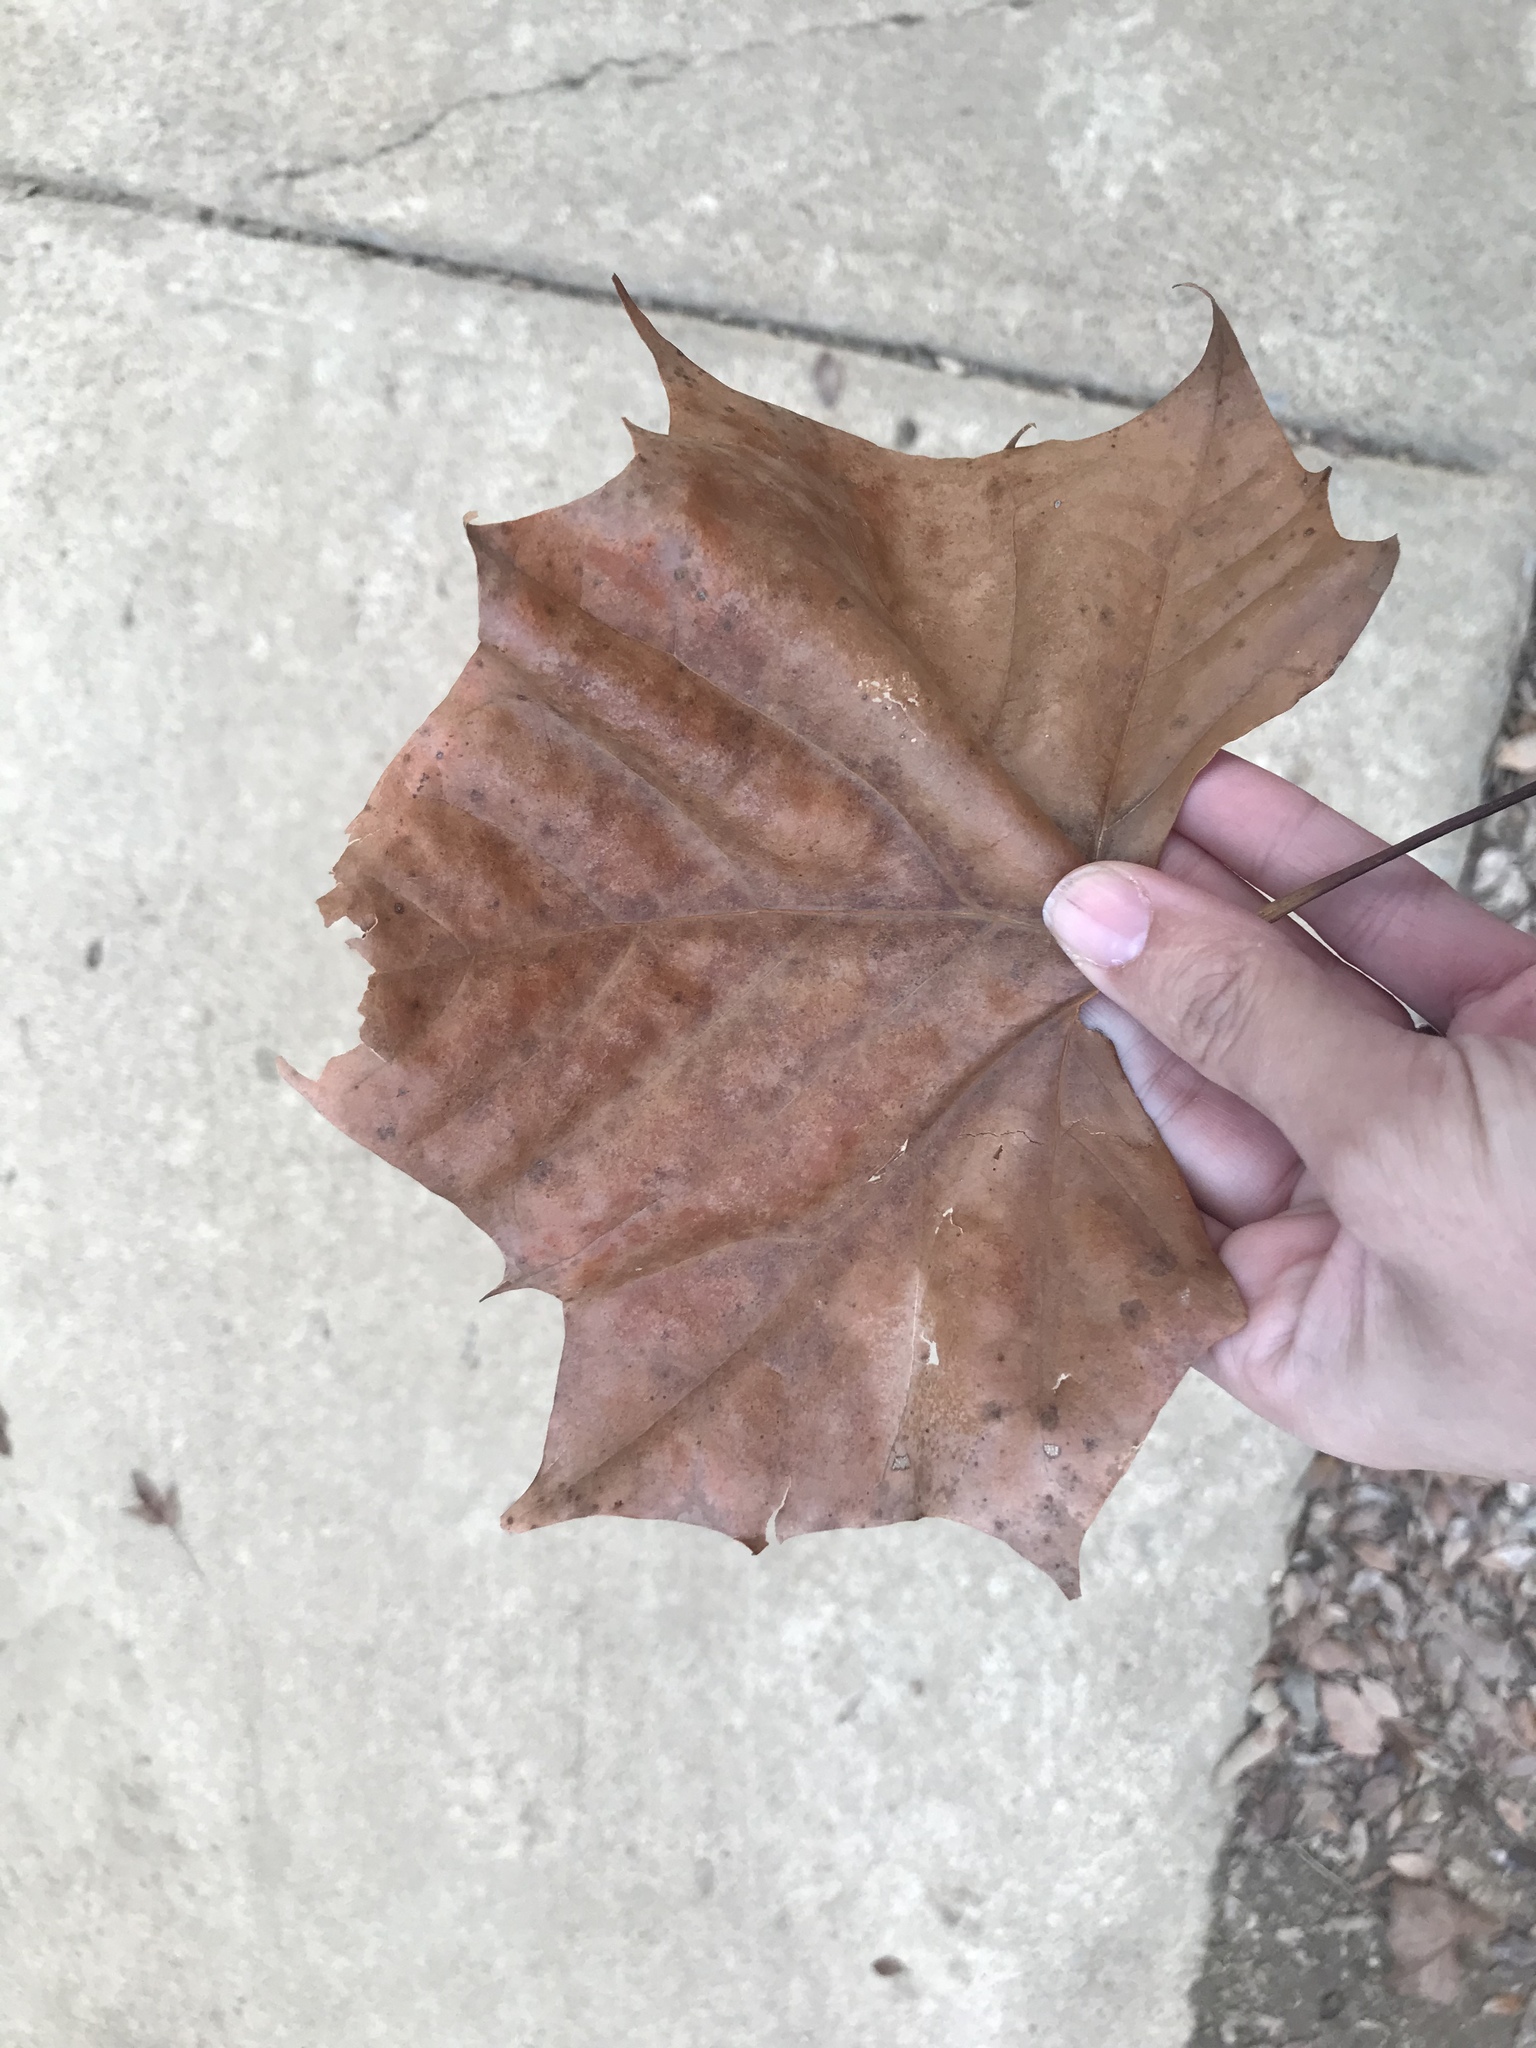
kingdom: Plantae
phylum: Tracheophyta
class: Magnoliopsida
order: Proteales
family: Platanaceae
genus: Platanus
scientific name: Platanus occidentalis
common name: American sycamore
